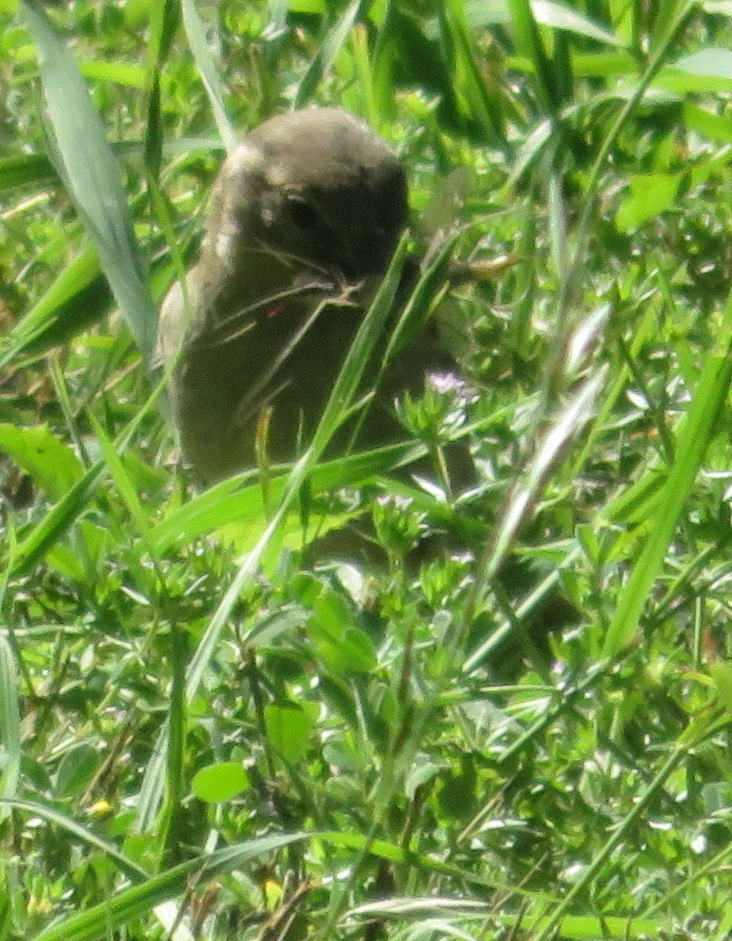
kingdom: Animalia
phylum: Chordata
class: Aves
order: Passeriformes
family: Passeridae
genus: Passer
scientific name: Passer domesticus
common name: House sparrow
